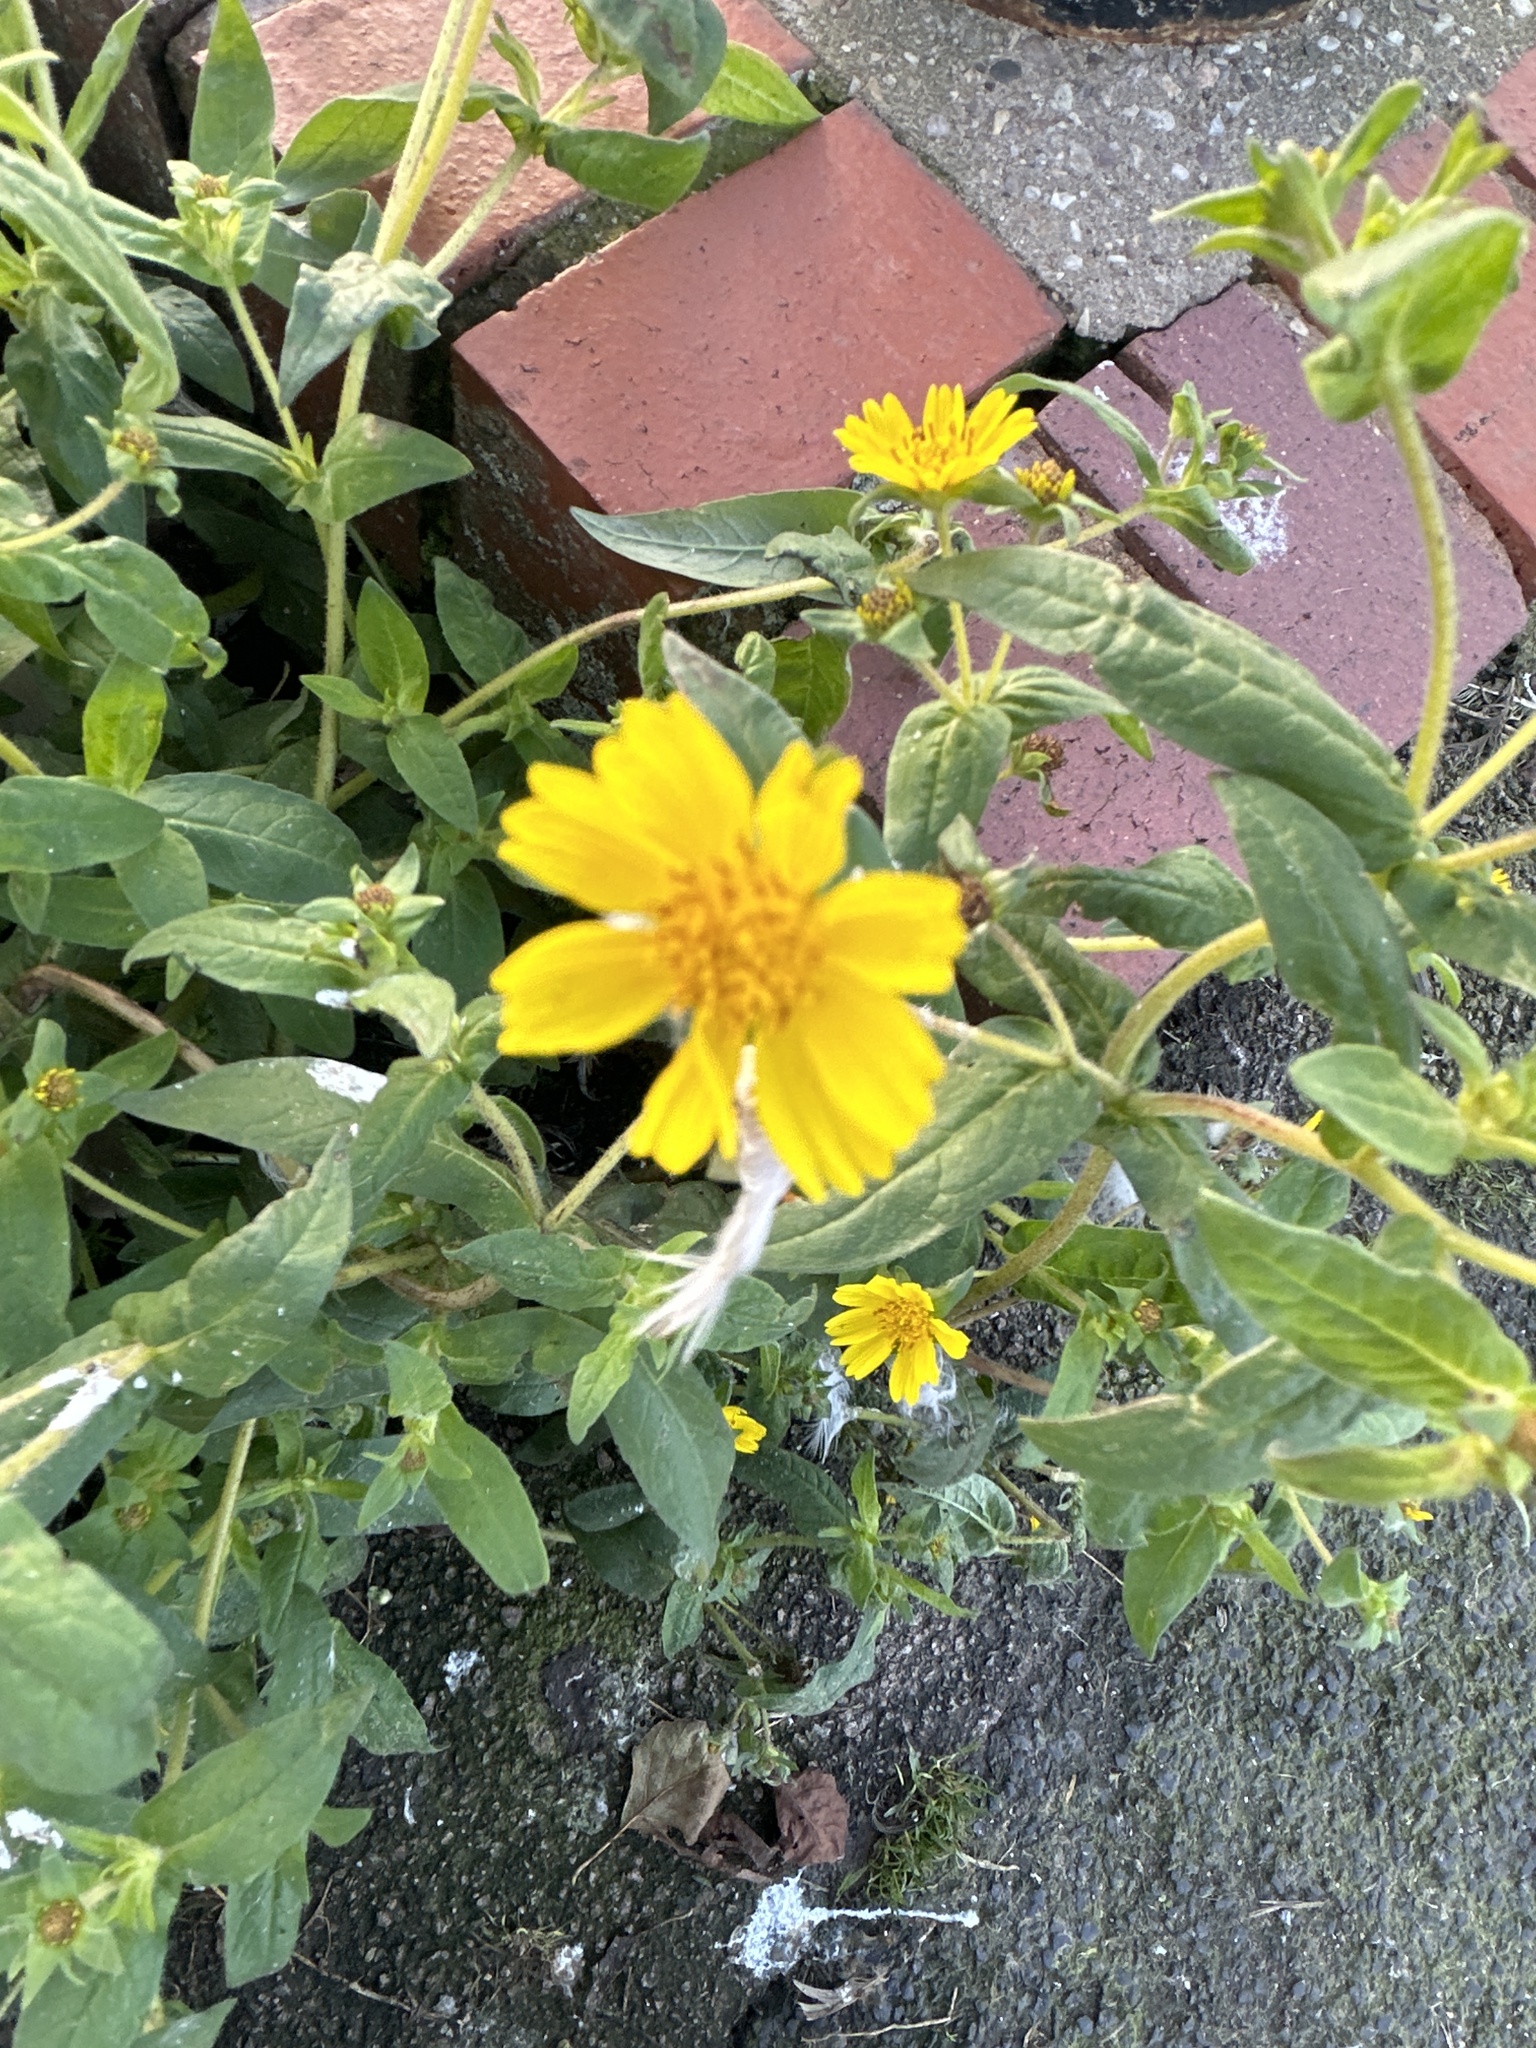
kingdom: Plantae
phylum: Tracheophyta
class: Magnoliopsida
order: Asterales
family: Asteraceae
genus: Guizotia
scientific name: Guizotia abyssinica
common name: Niger
